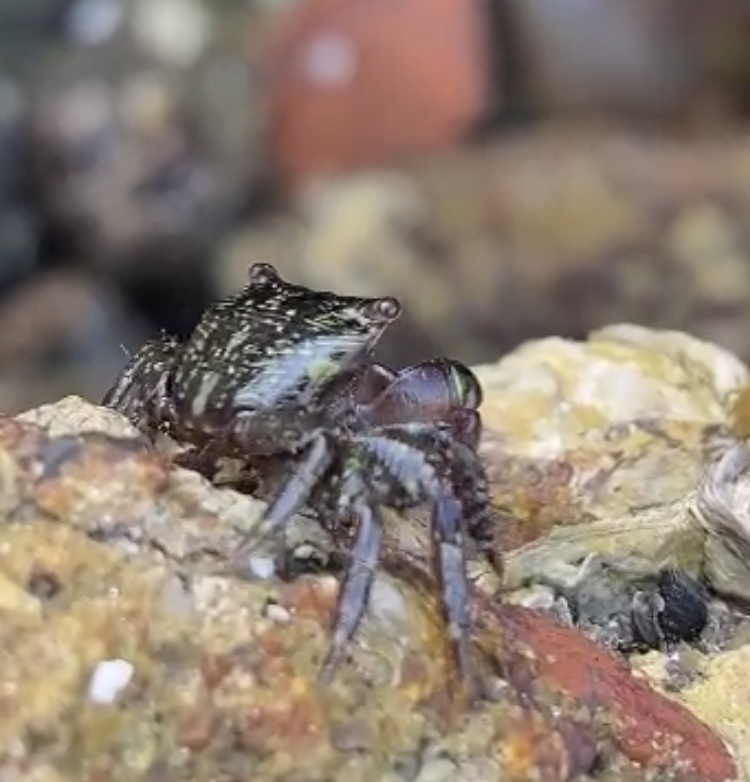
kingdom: Animalia
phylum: Arthropoda
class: Malacostraca
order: Decapoda
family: Grapsidae
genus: Pachygrapsus
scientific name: Pachygrapsus transversus
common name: Mottled shore crab
